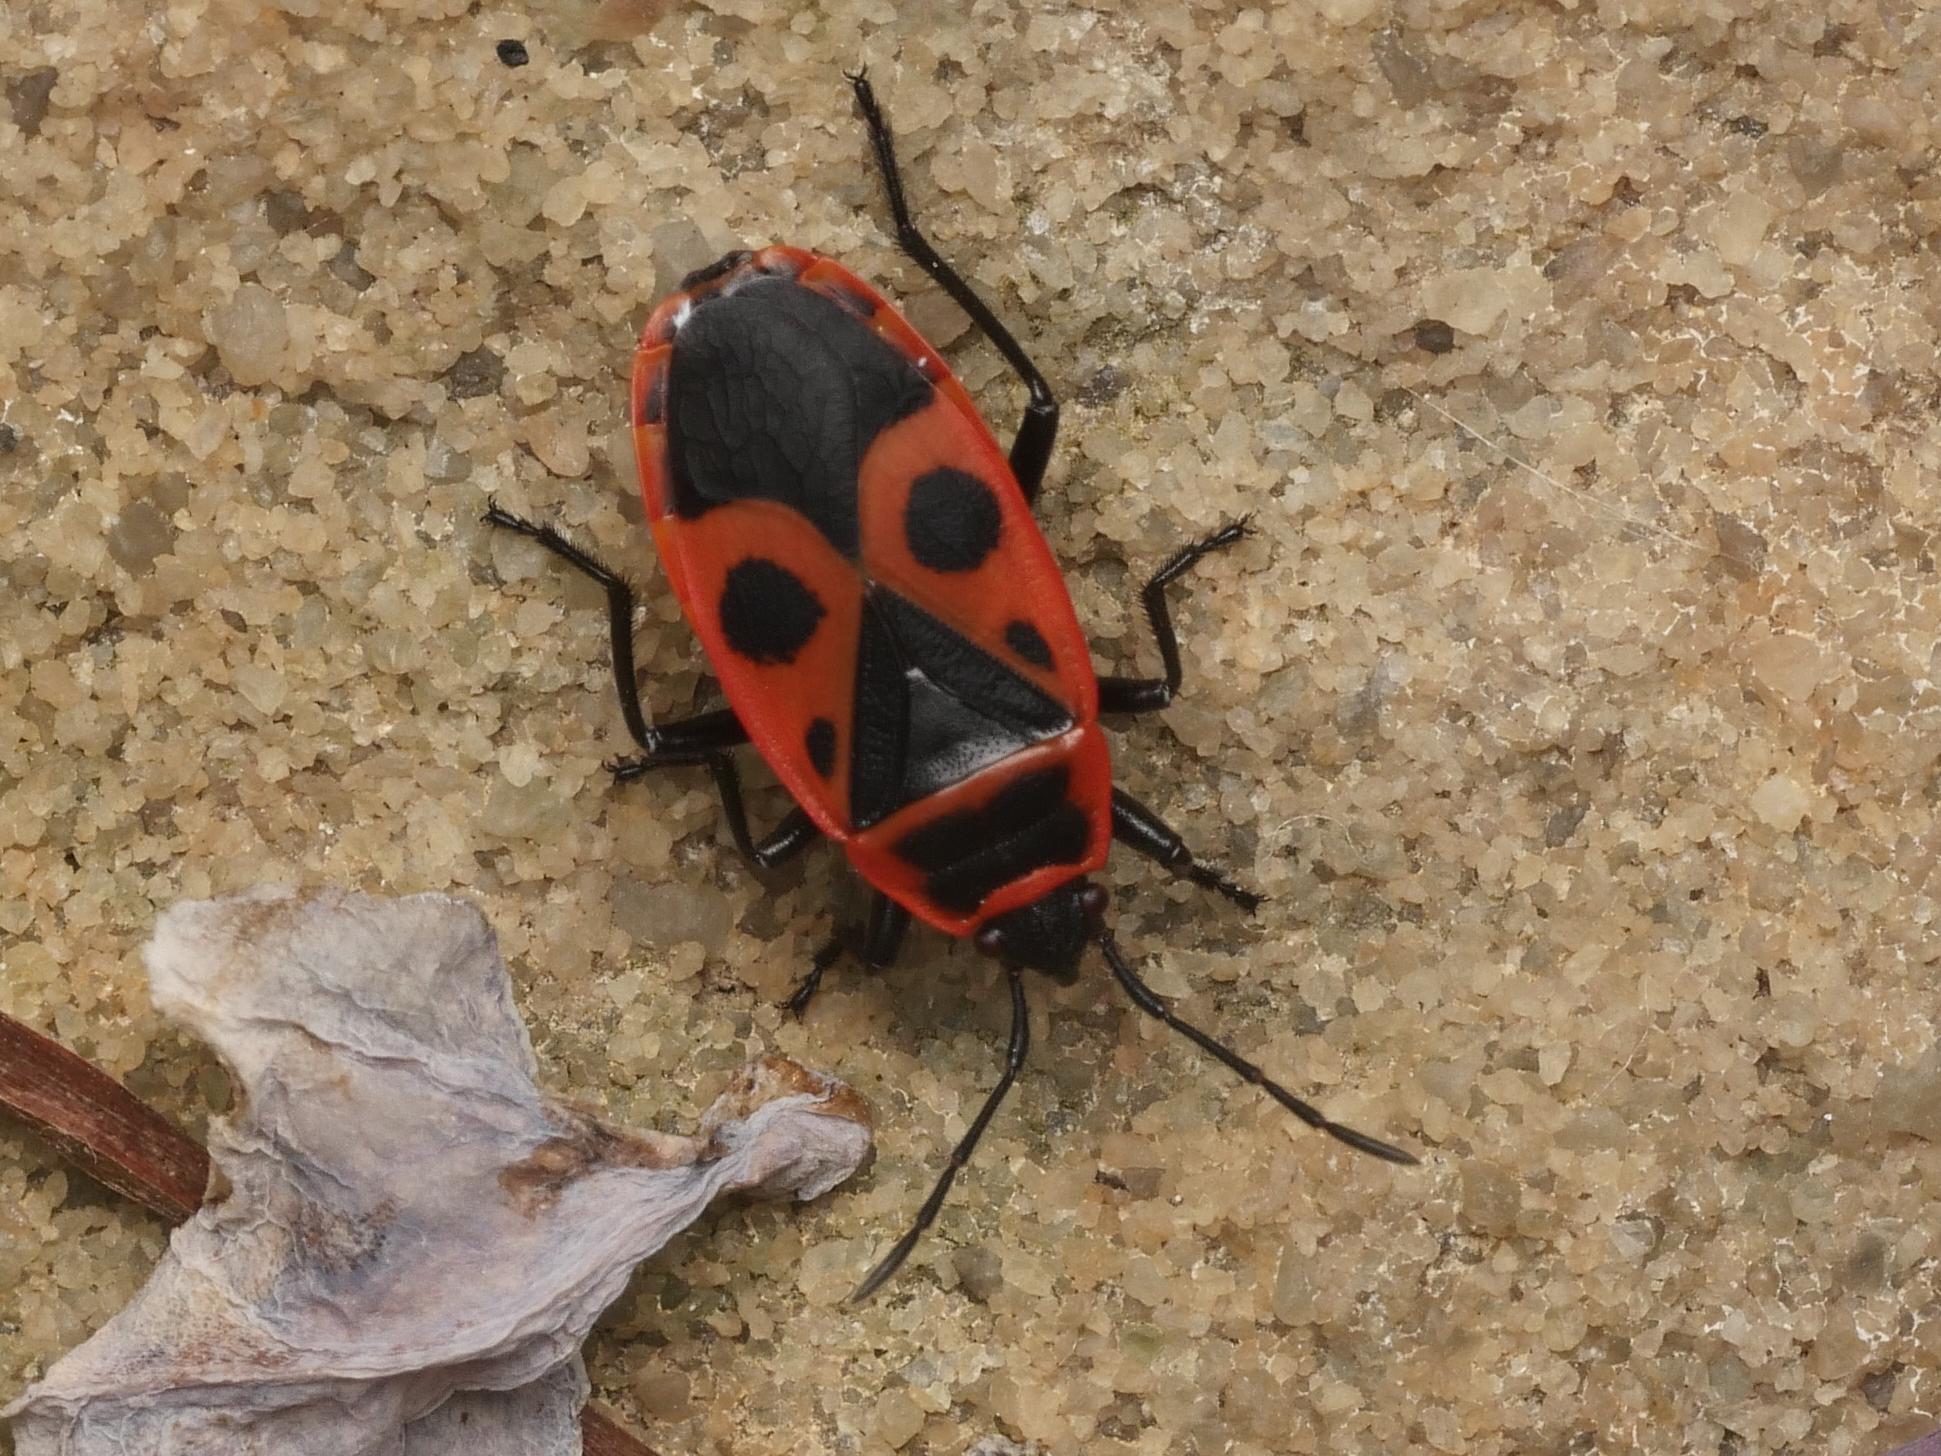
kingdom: Animalia
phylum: Arthropoda
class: Insecta
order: Hemiptera
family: Pyrrhocoridae
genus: Pyrrhocoris
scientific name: Pyrrhocoris apterus
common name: Firebug
